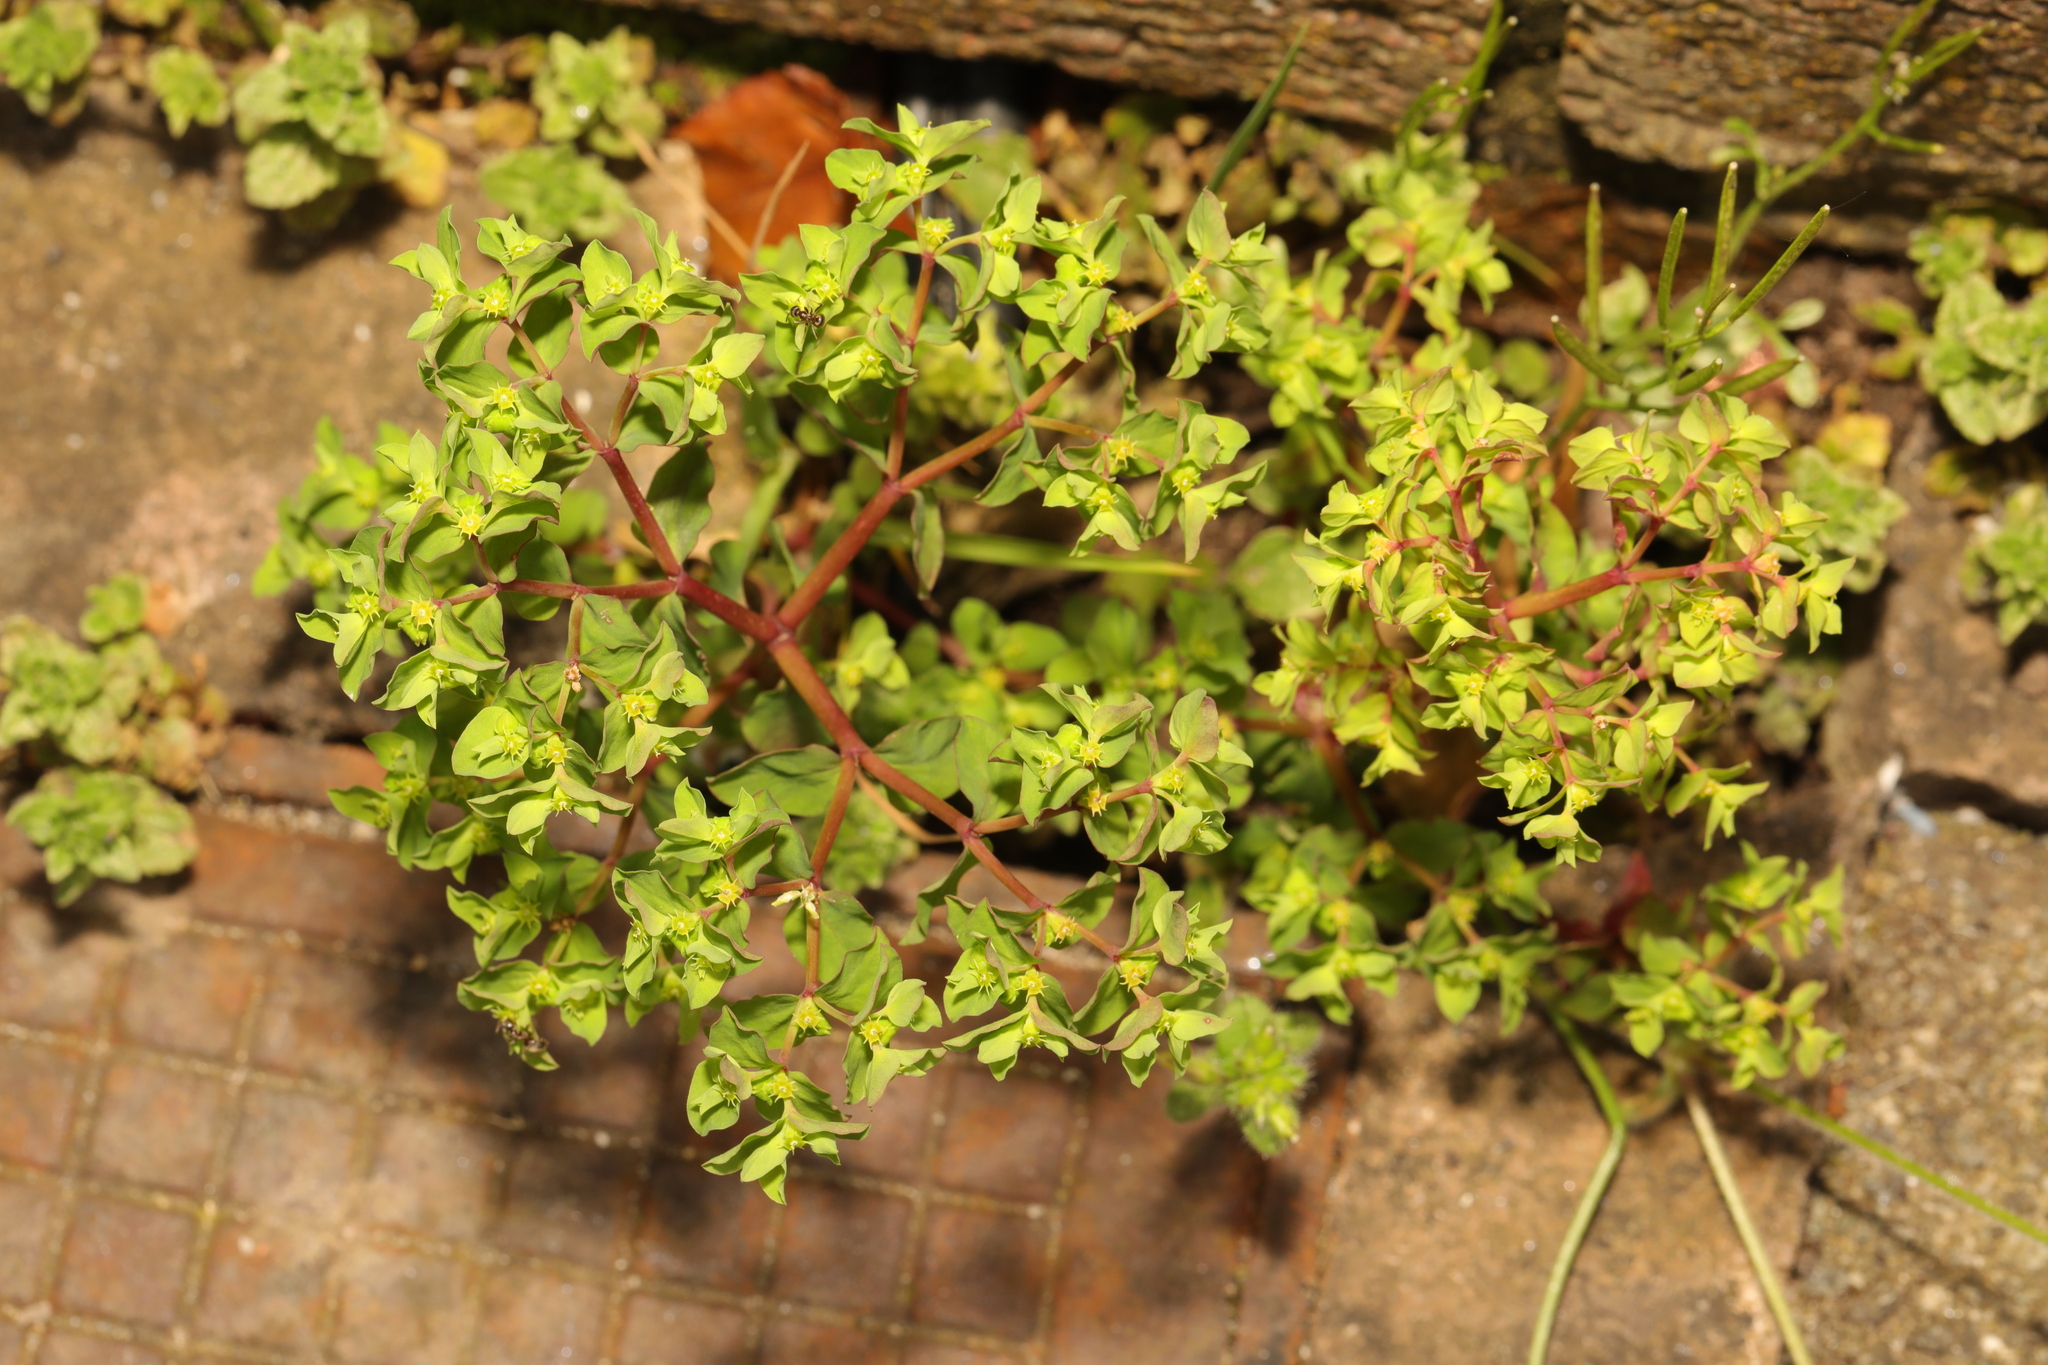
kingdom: Plantae
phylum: Tracheophyta
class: Magnoliopsida
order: Malpighiales
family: Euphorbiaceae
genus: Euphorbia
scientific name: Euphorbia peplus
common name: Petty spurge
